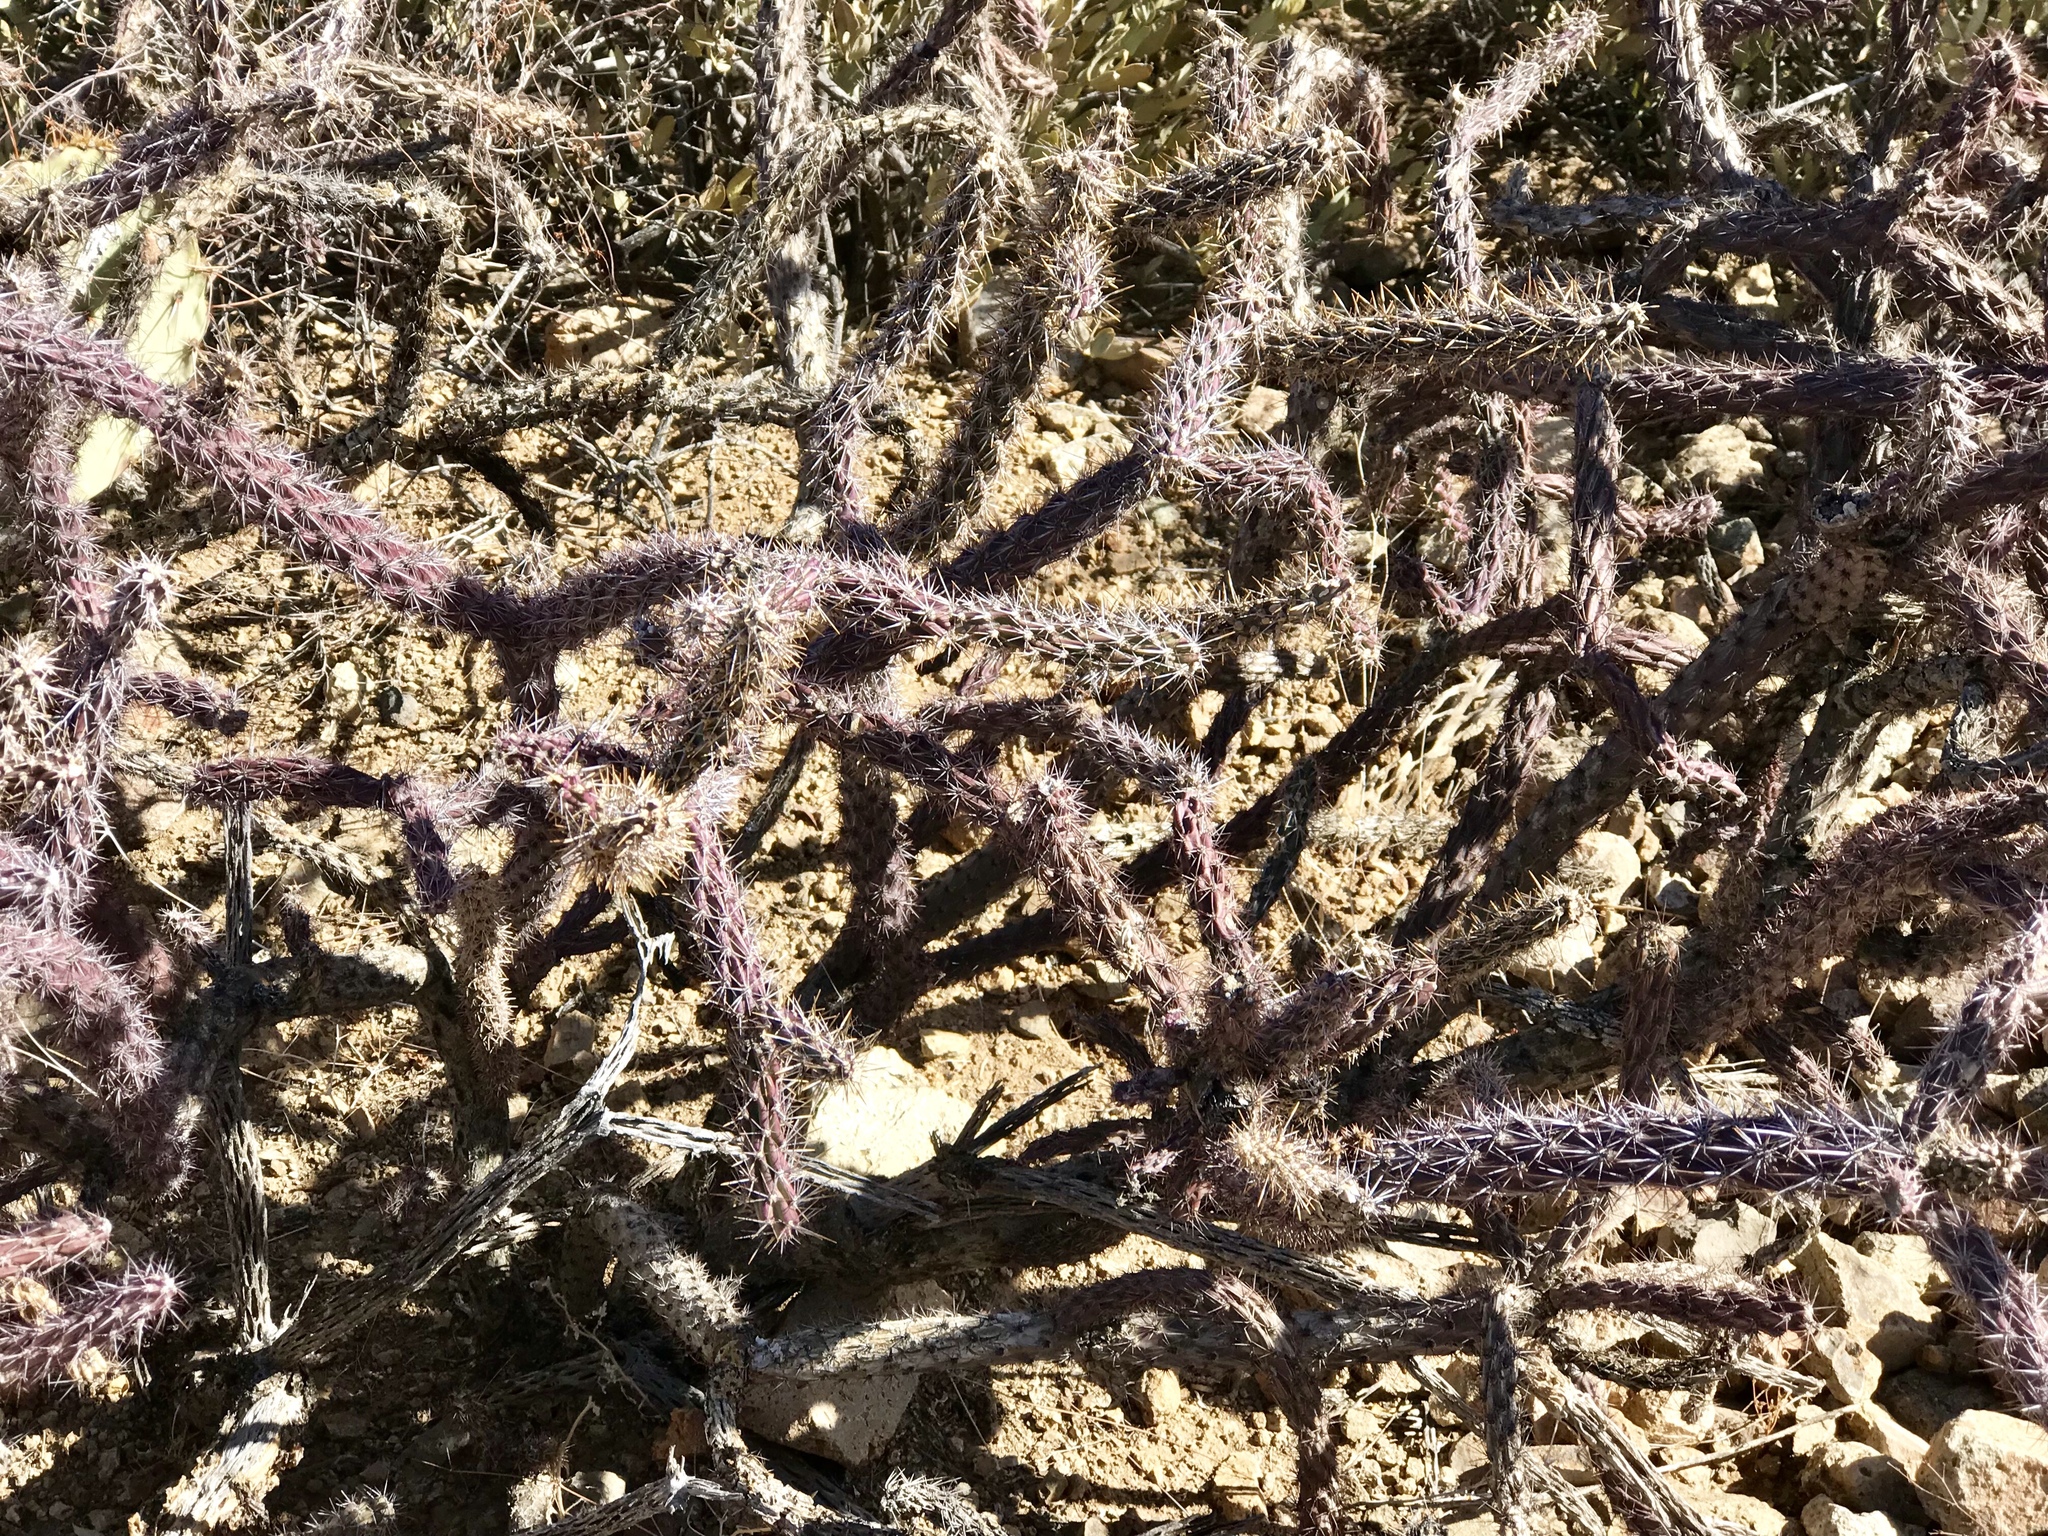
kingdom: Plantae
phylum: Tracheophyta
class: Magnoliopsida
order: Caryophyllales
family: Cactaceae
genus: Cylindropuntia
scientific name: Cylindropuntia thurberi
